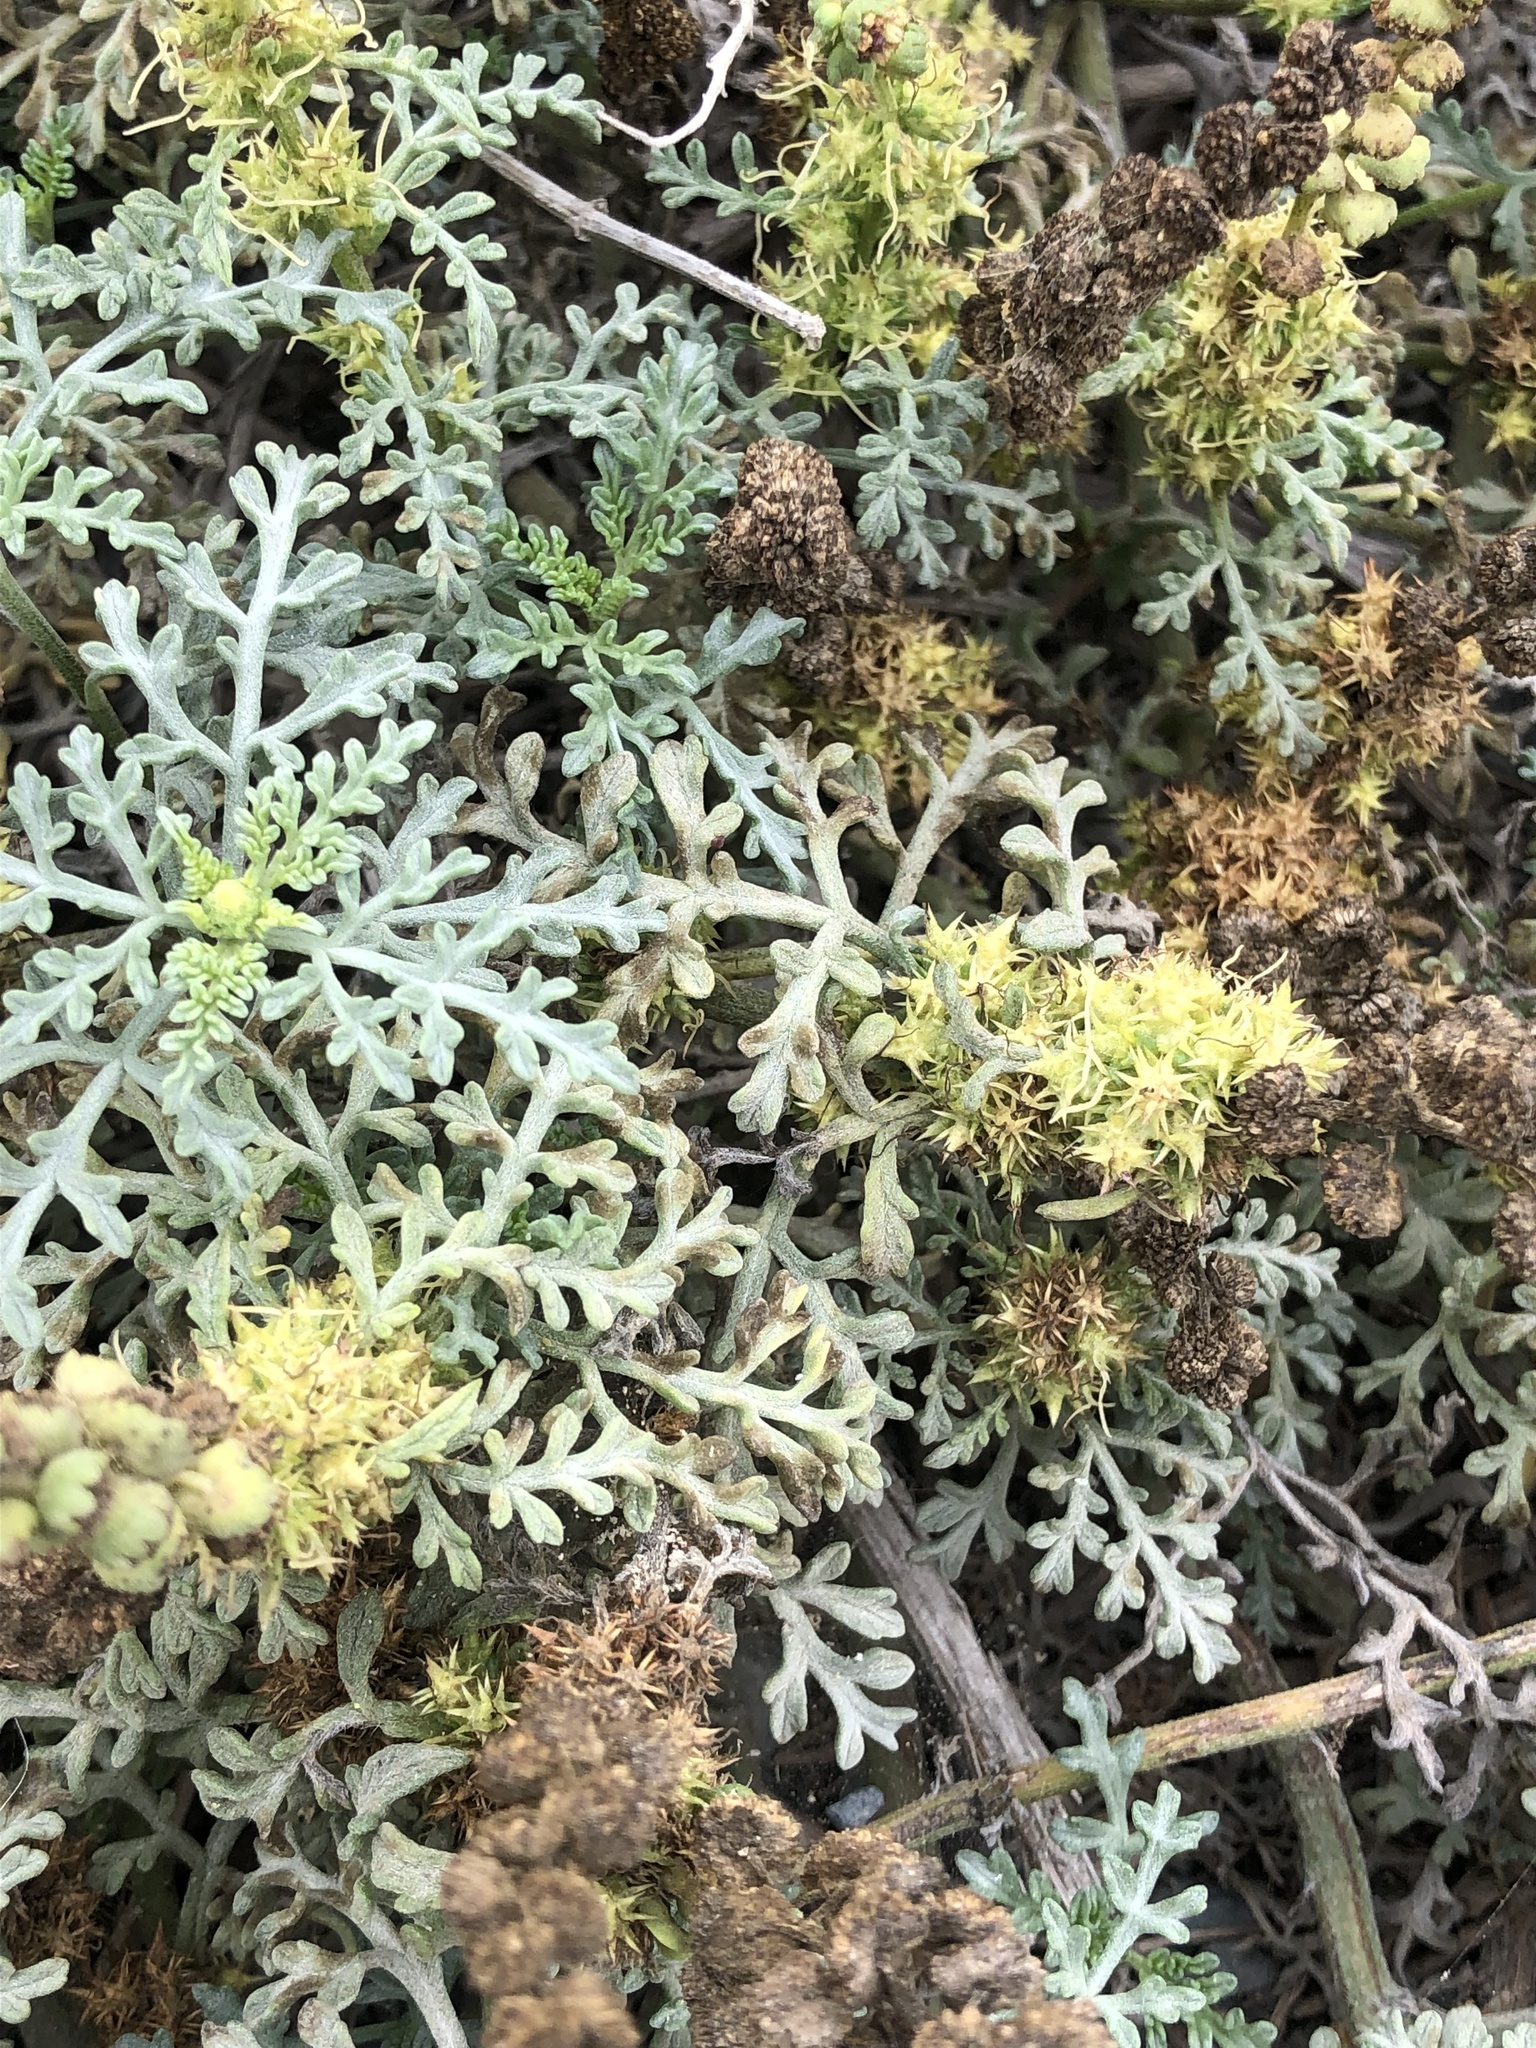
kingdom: Plantae
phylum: Tracheophyta
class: Magnoliopsida
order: Asterales
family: Asteraceae
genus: Ambrosia
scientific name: Ambrosia chamissonis
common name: Beachbur
